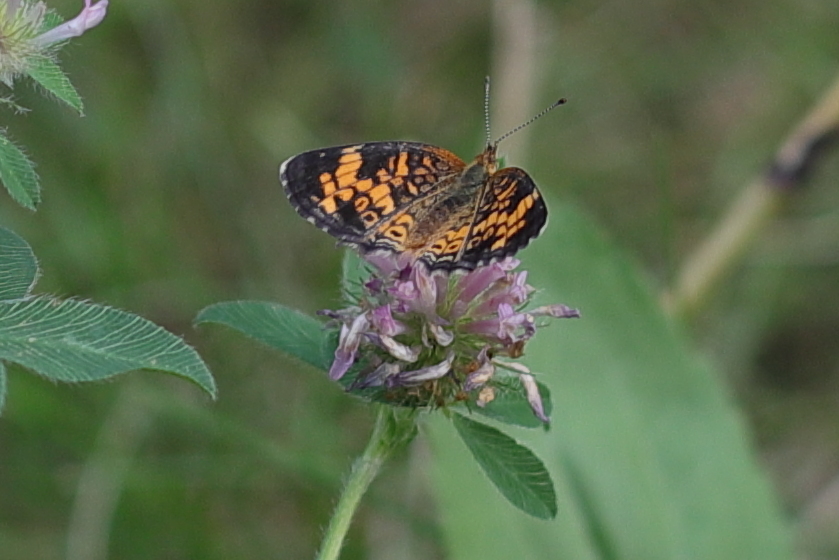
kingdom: Animalia
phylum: Arthropoda
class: Insecta
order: Lepidoptera
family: Nymphalidae
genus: Phyciodes
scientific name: Phyciodes tharos
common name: Pearl crescent
